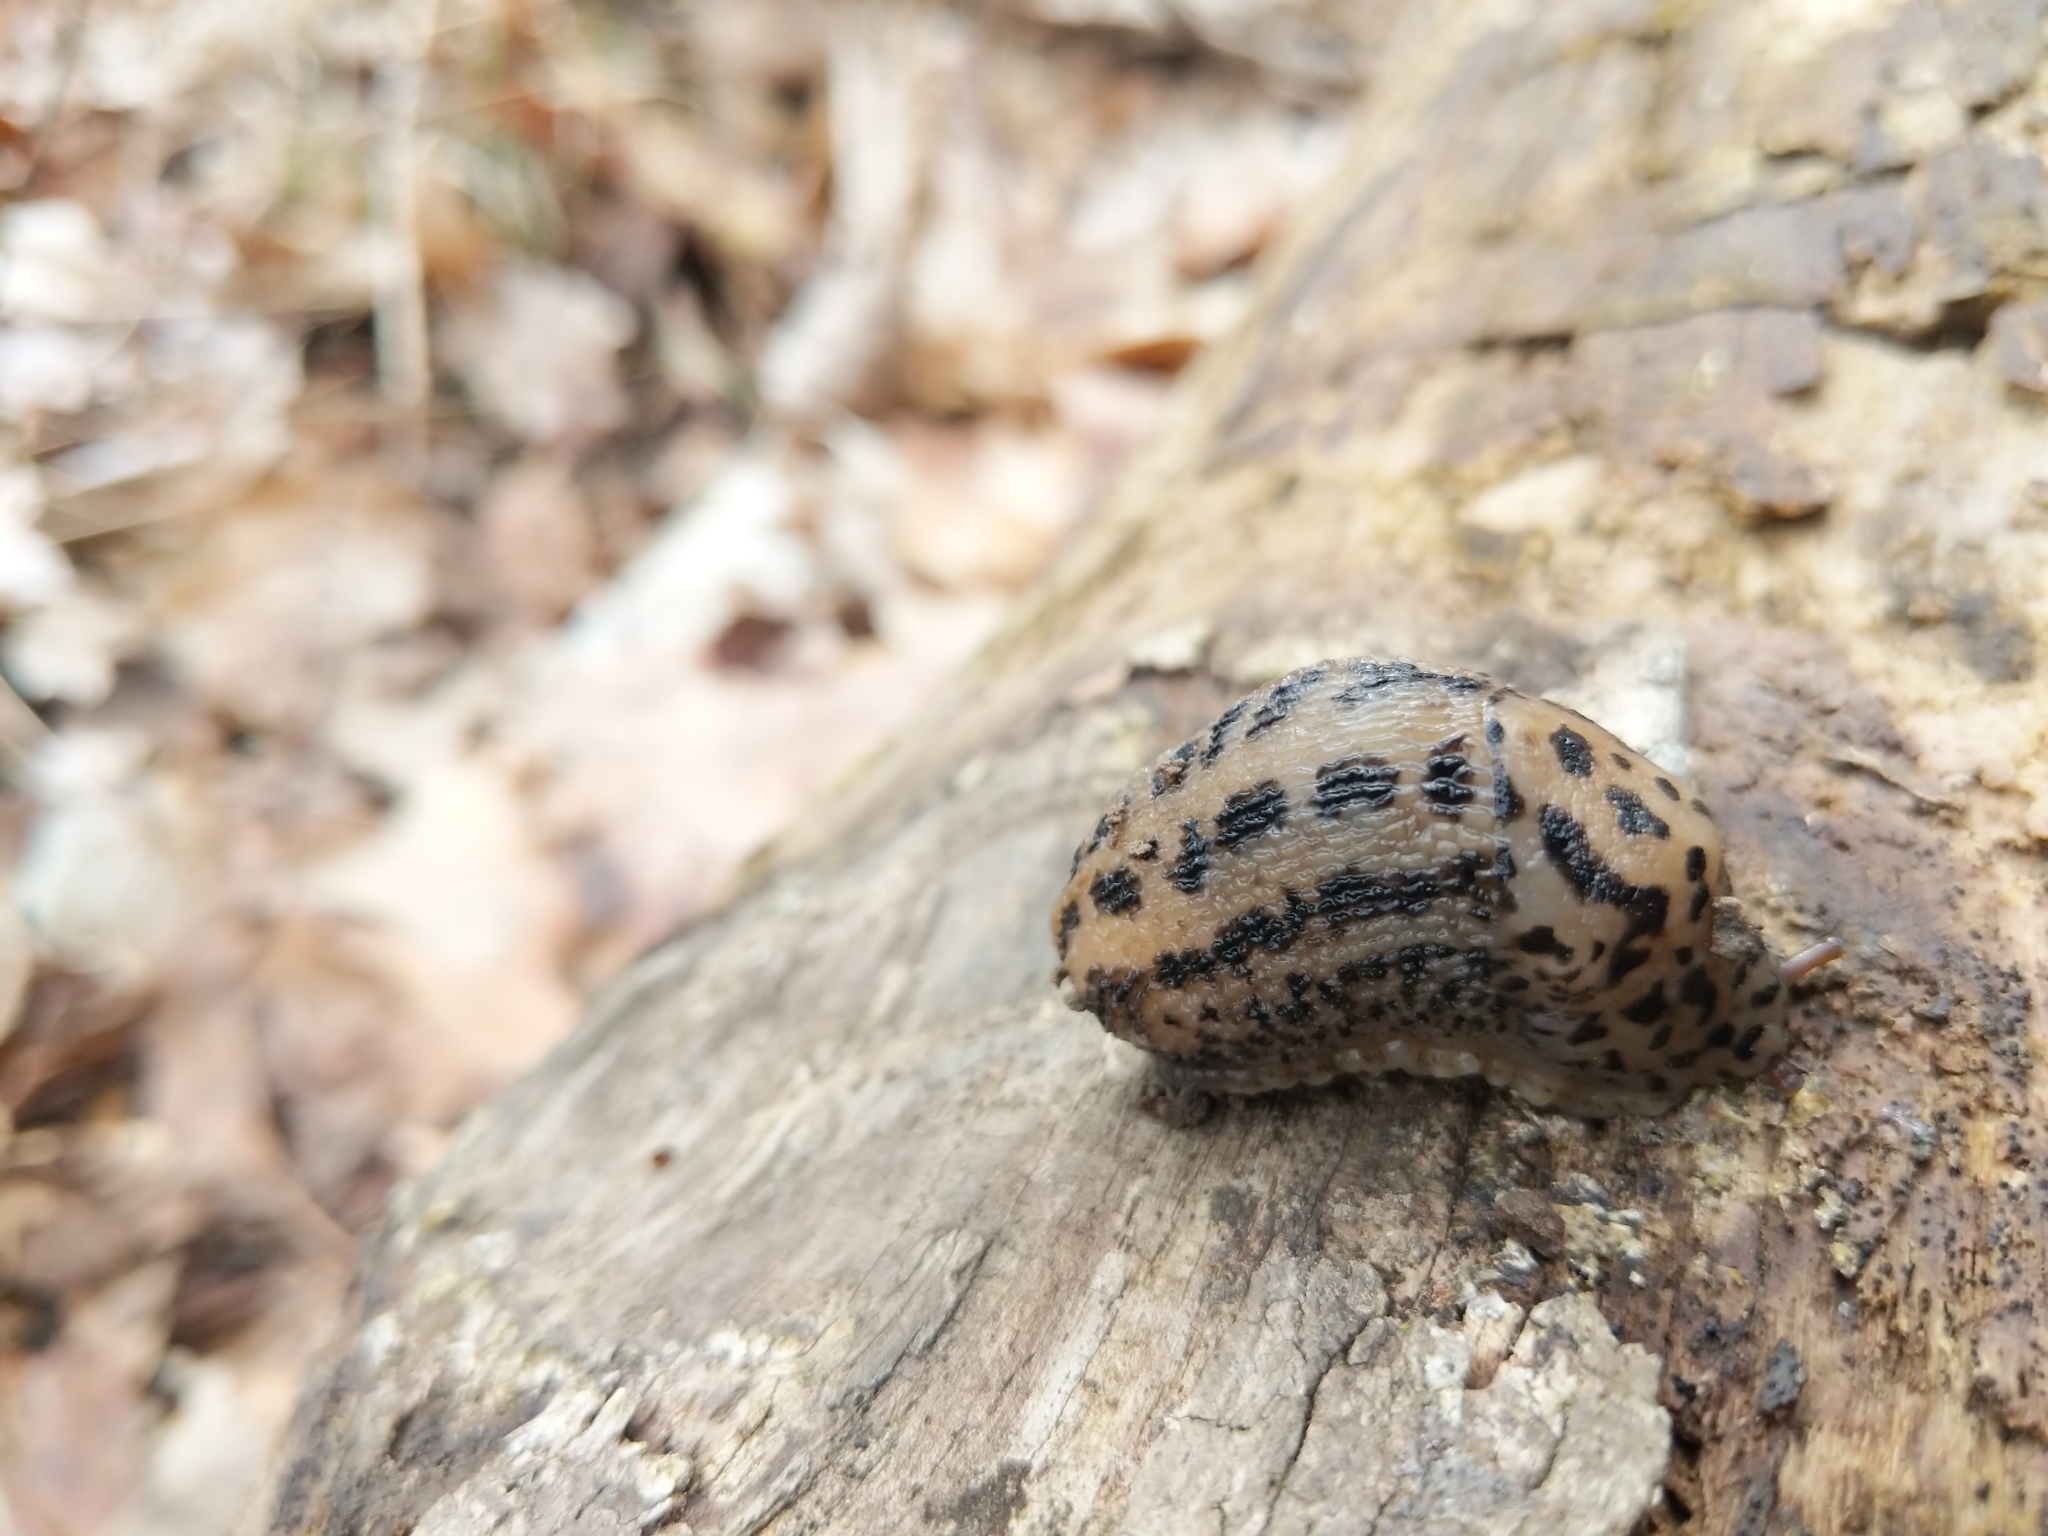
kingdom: Animalia
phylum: Mollusca
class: Gastropoda
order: Stylommatophora
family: Limacidae
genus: Limax
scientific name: Limax maximus
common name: Great grey slug
